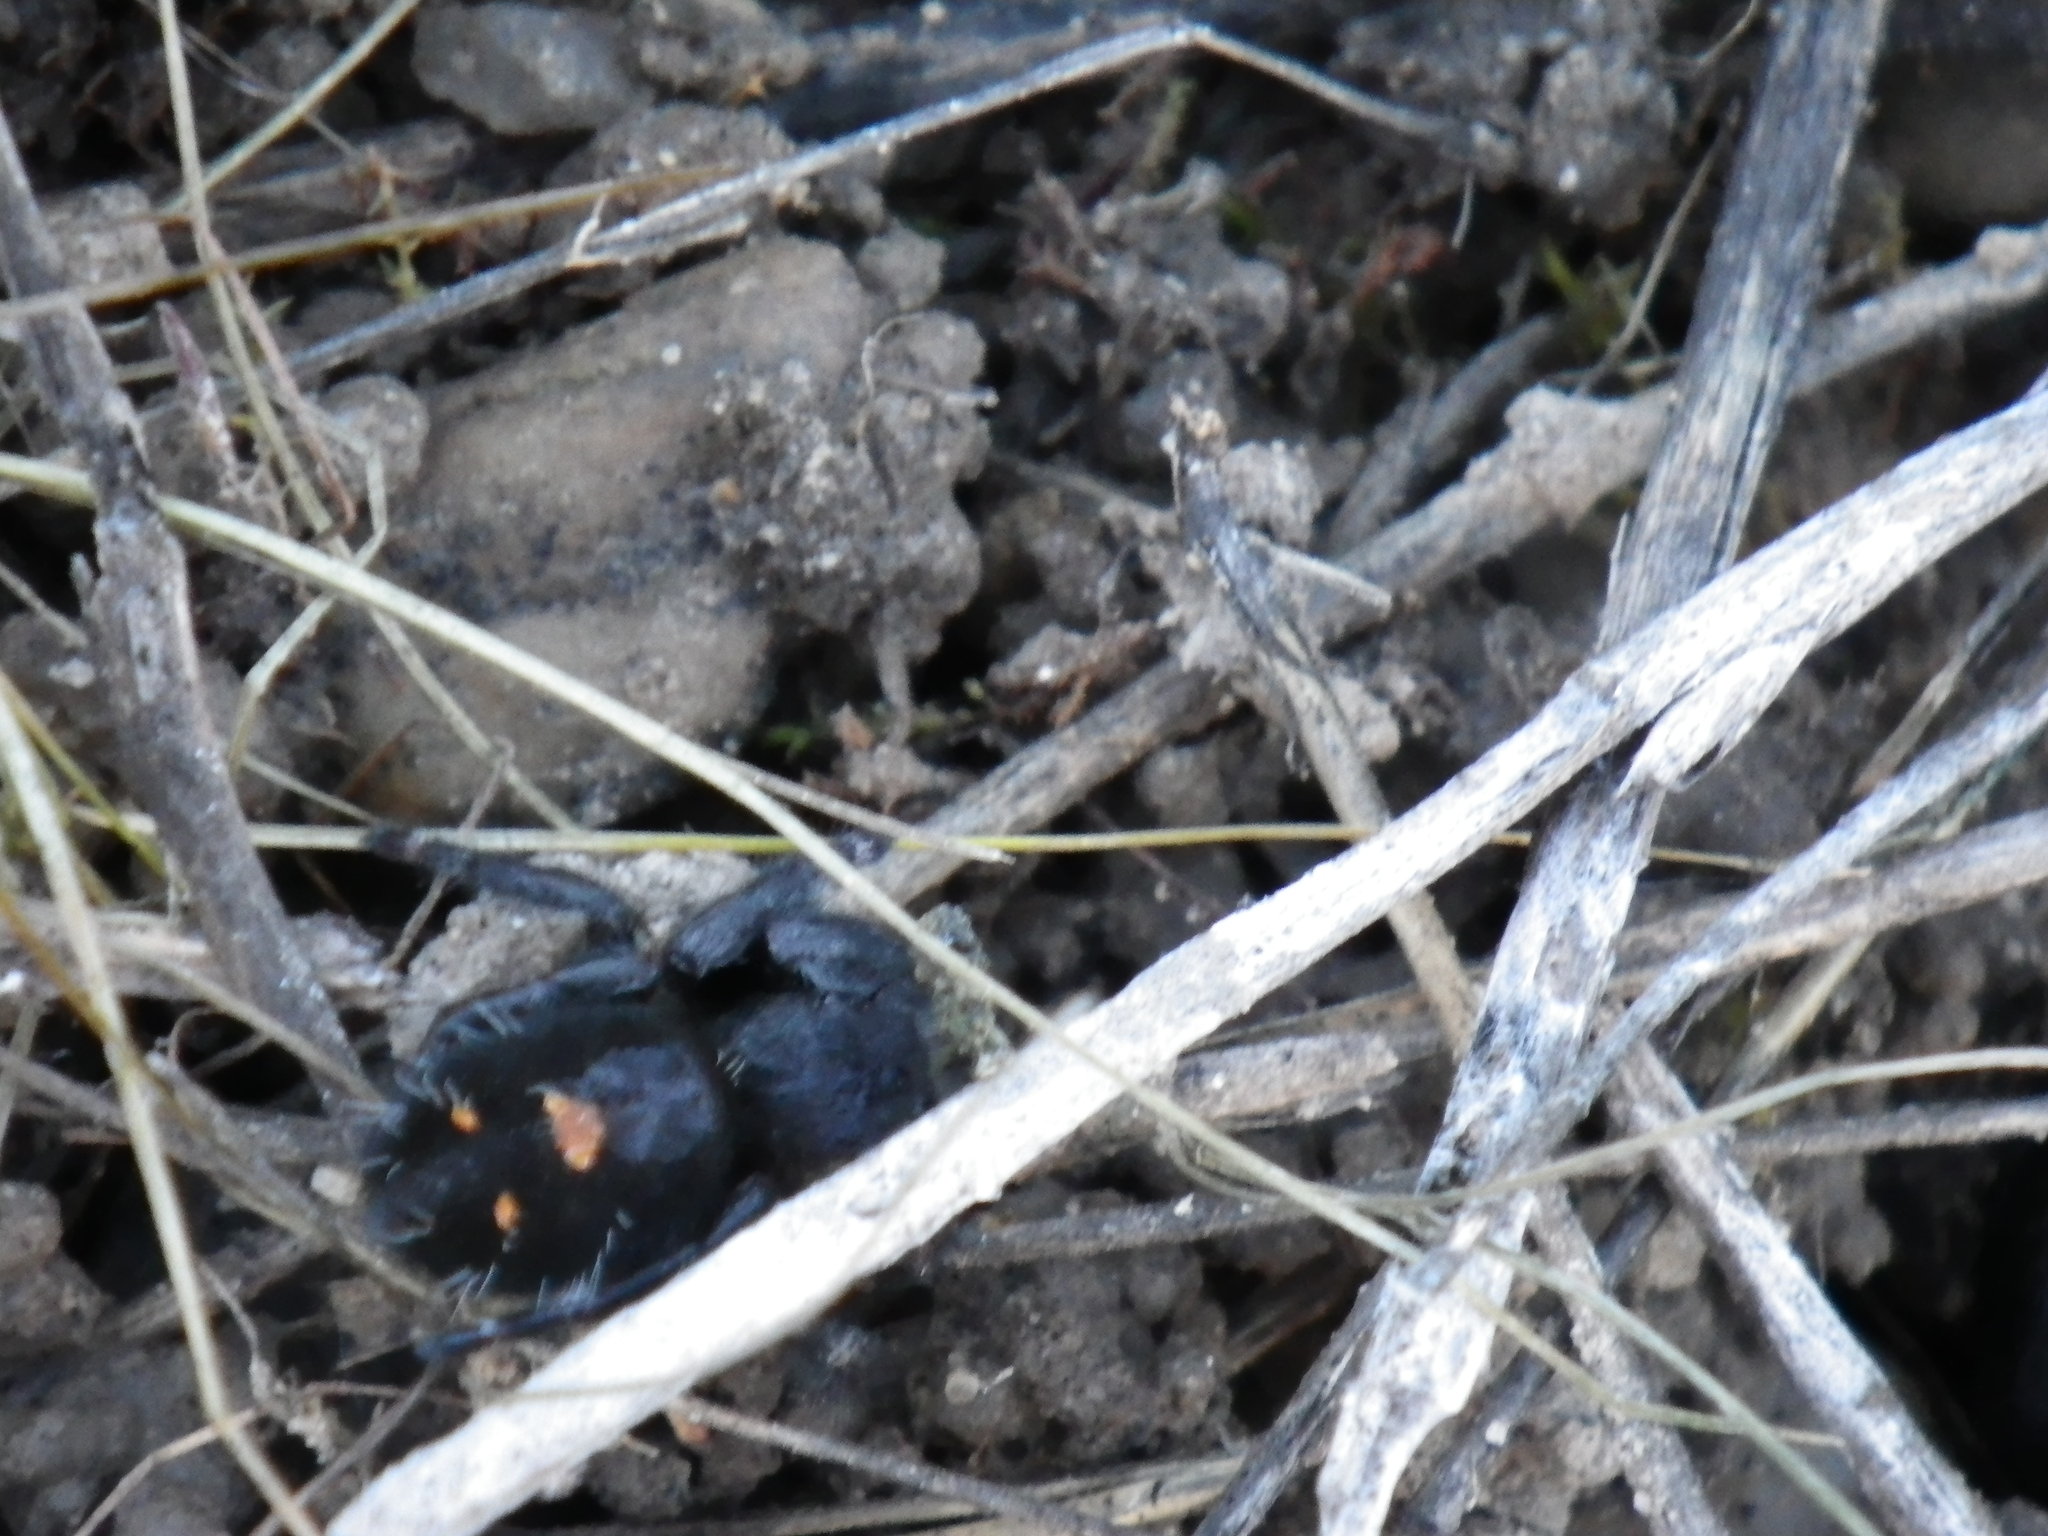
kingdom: Animalia
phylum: Arthropoda
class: Arachnida
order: Araneae
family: Salticidae
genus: Phidippus
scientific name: Phidippus audax
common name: Bold jumper
